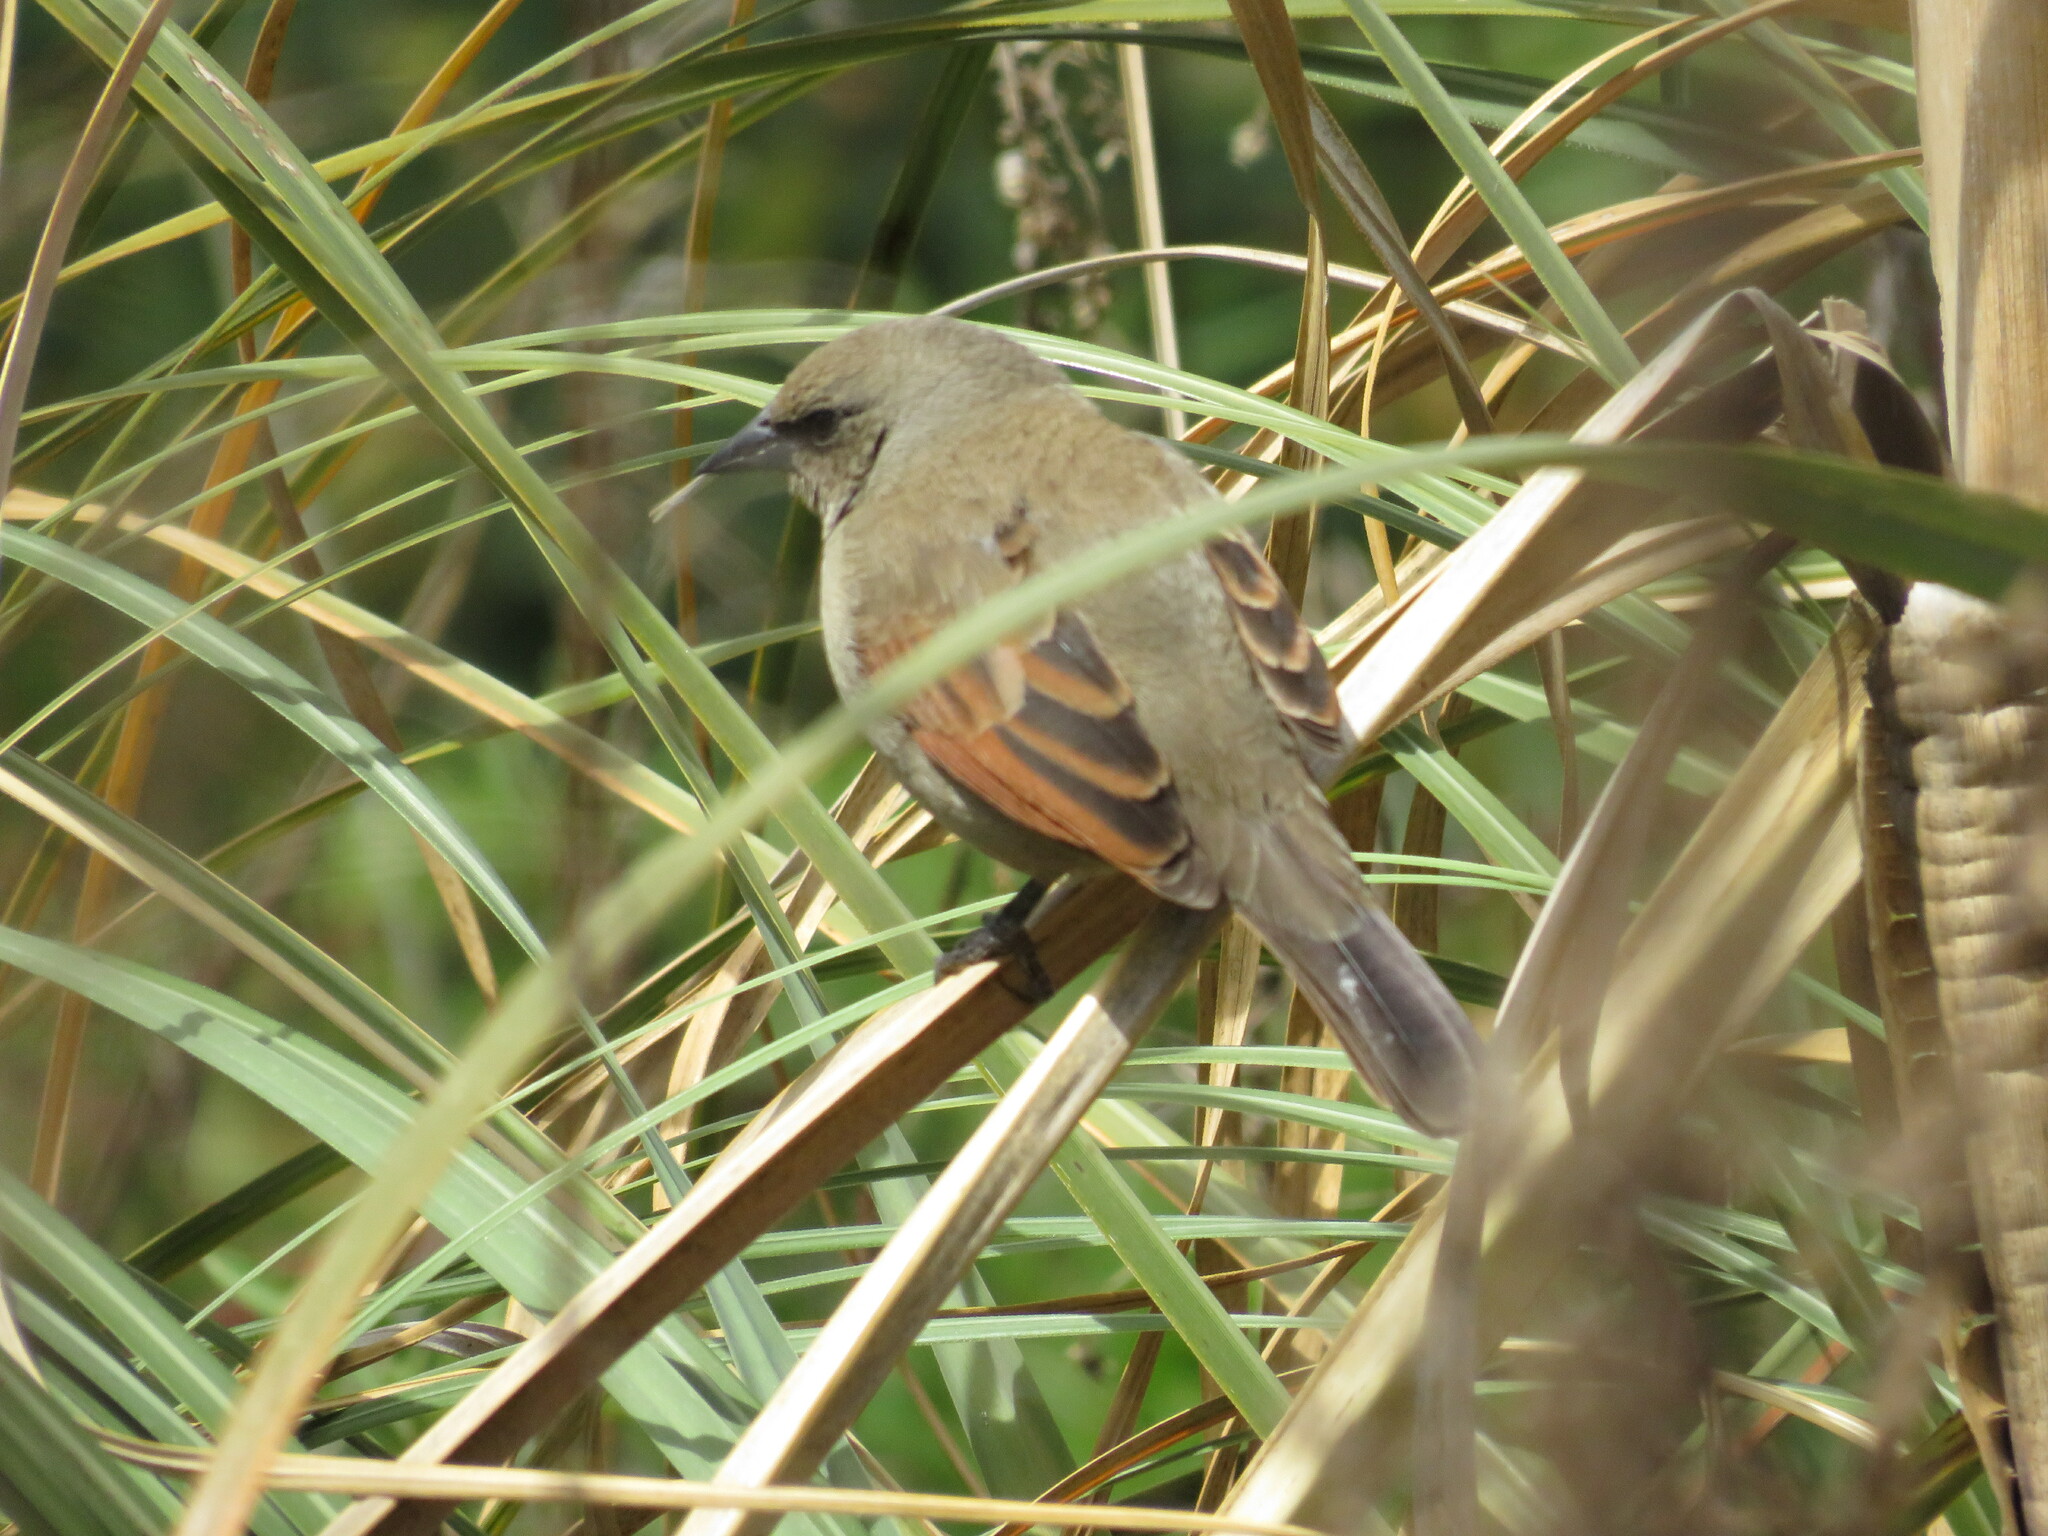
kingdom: Animalia
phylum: Chordata
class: Aves
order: Passeriformes
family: Icteridae
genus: Agelaioides
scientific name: Agelaioides badius
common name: Baywing
